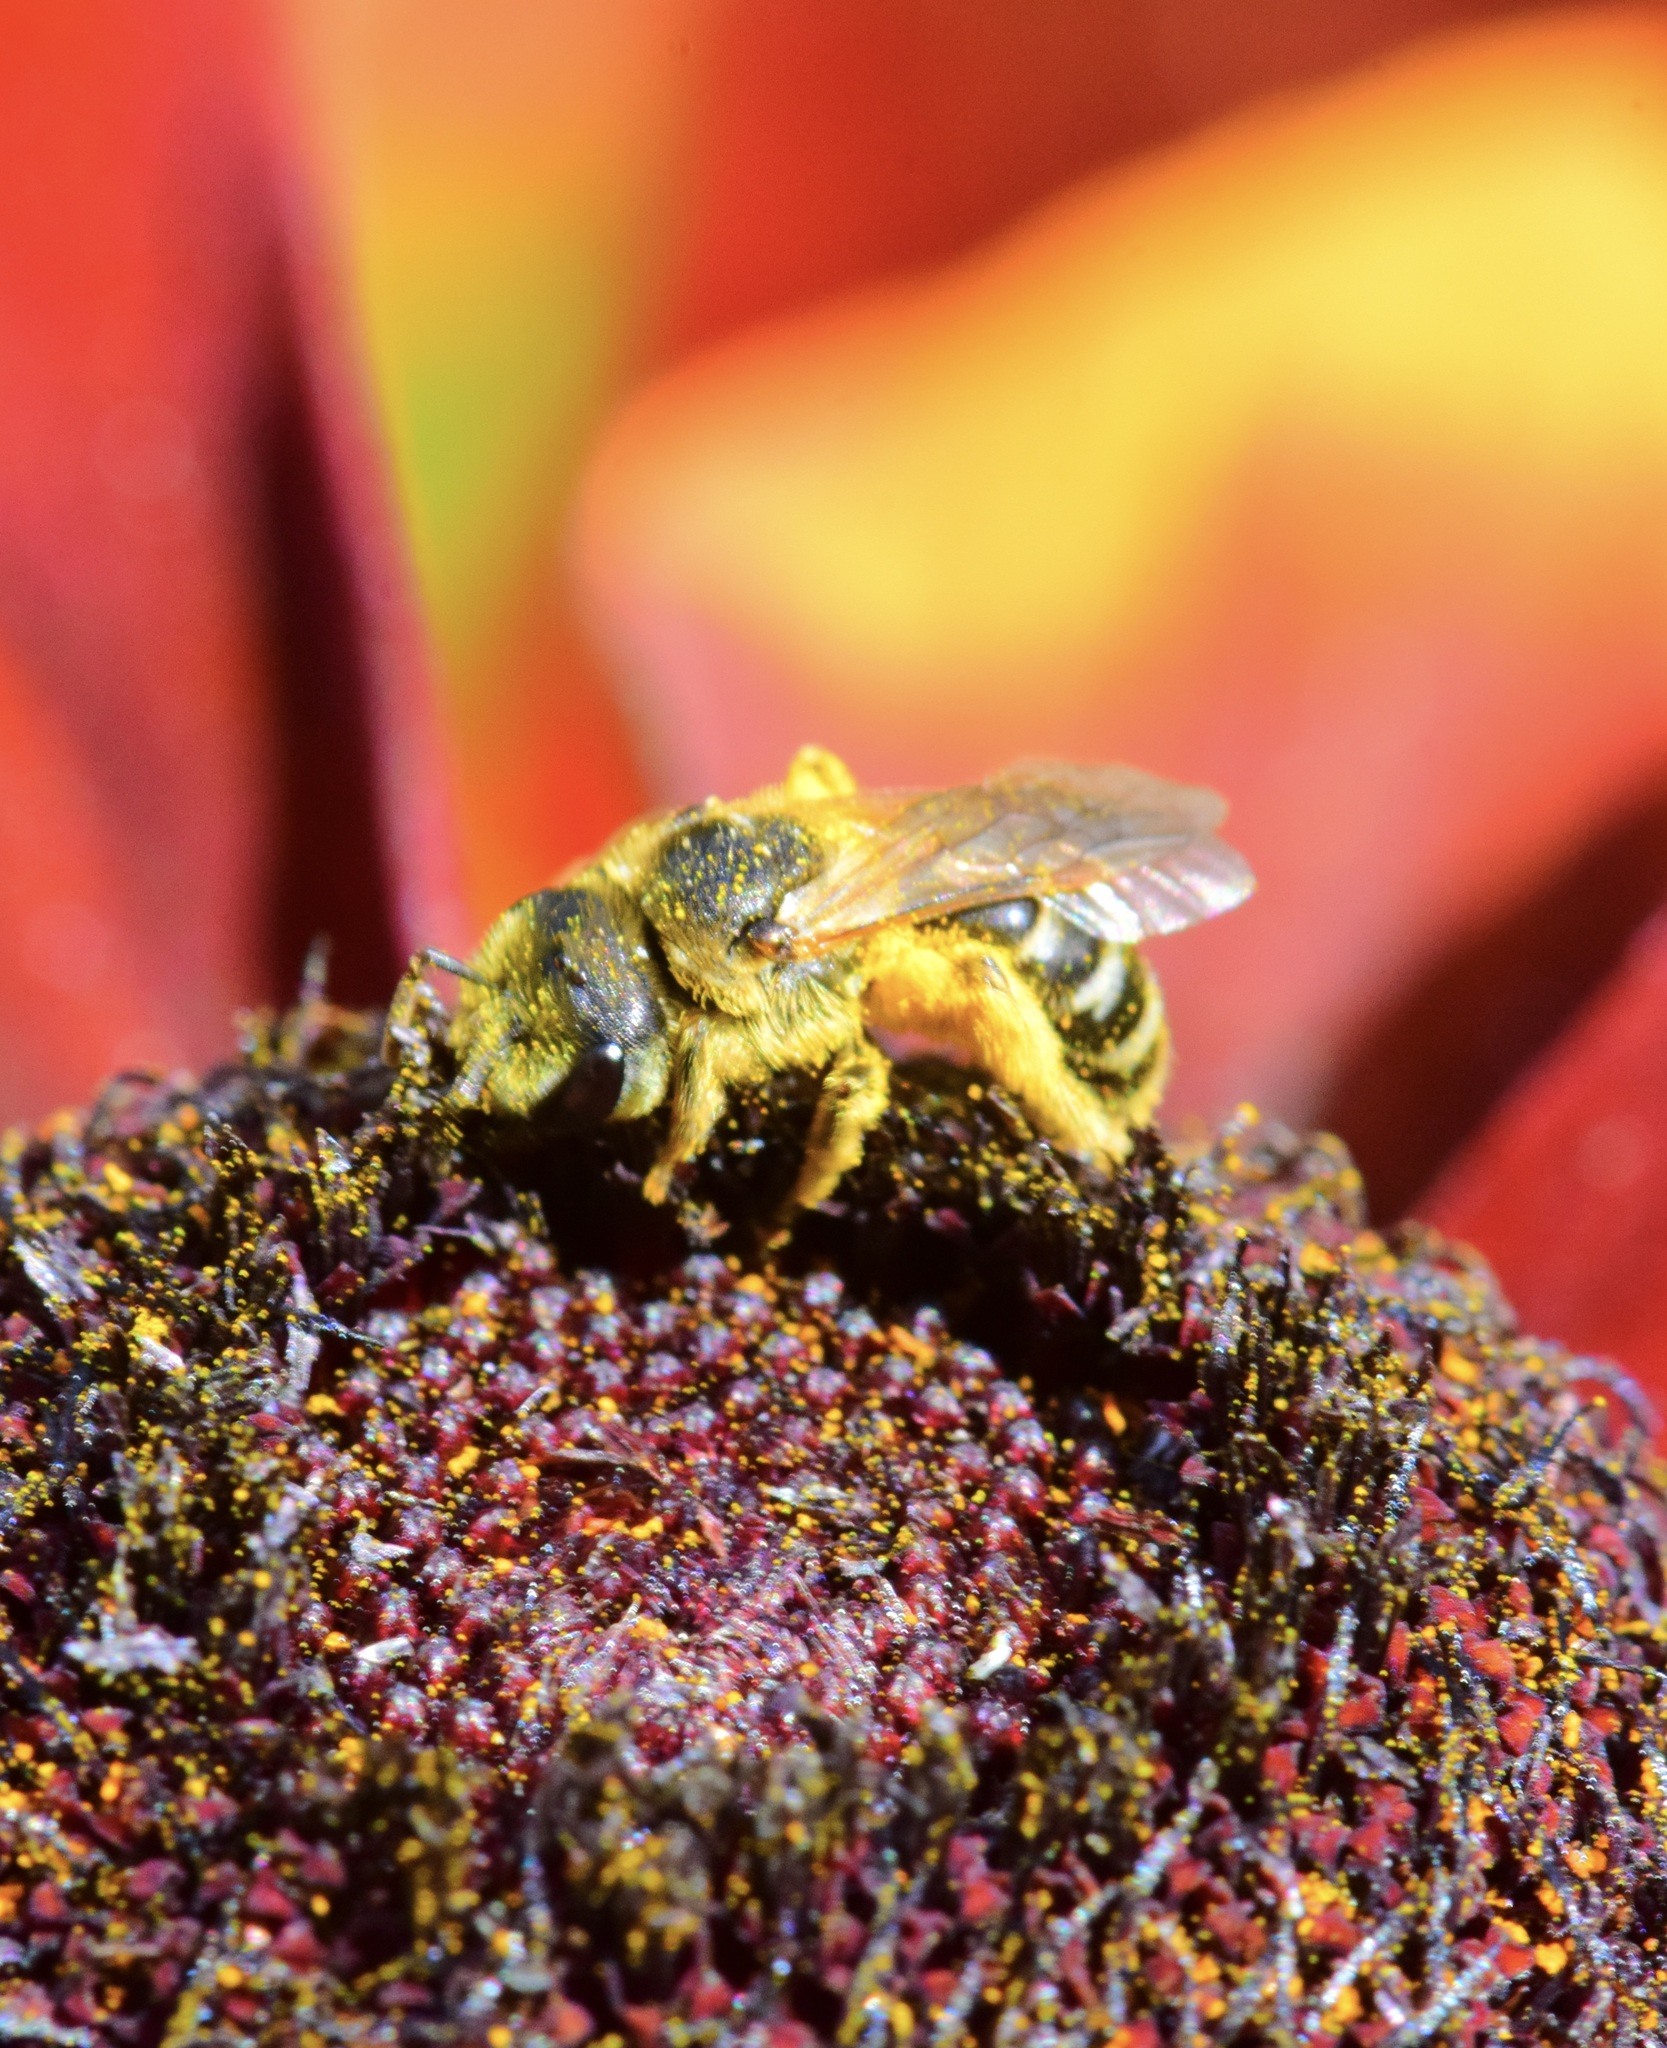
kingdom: Animalia
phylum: Arthropoda
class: Insecta
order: Hymenoptera
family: Halictidae
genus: Halictus
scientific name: Halictus ligatus
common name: Ligated furrow bee
